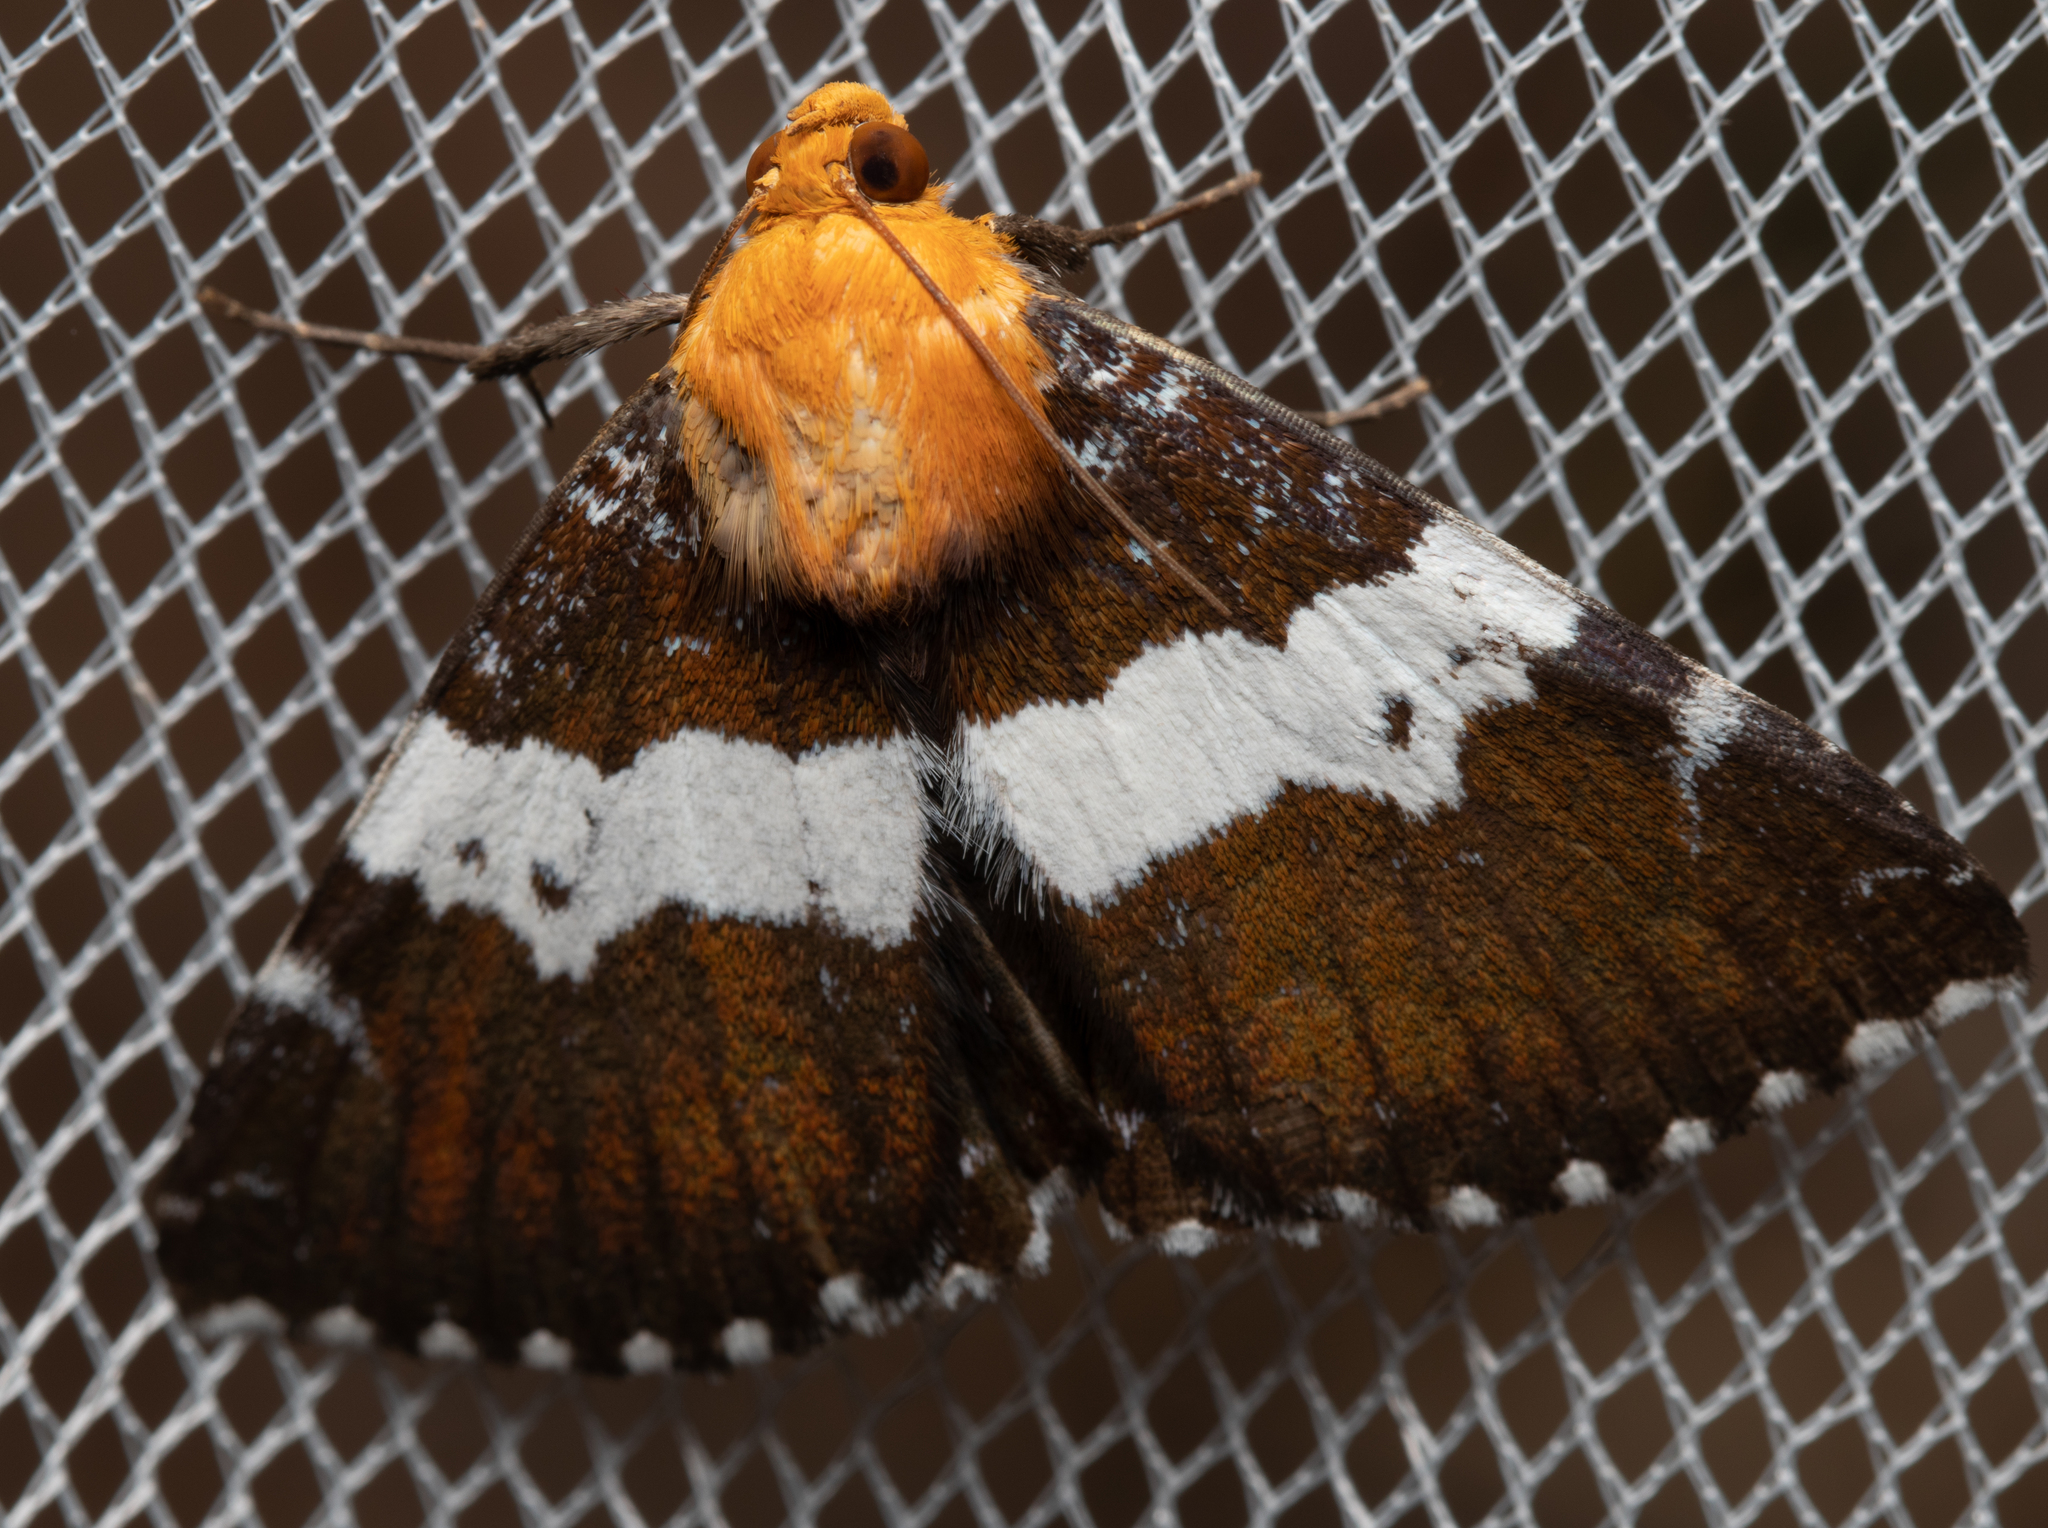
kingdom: Animalia
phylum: Arthropoda
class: Insecta
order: Lepidoptera
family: Erebidae
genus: Buzara
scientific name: Buzara latizona
